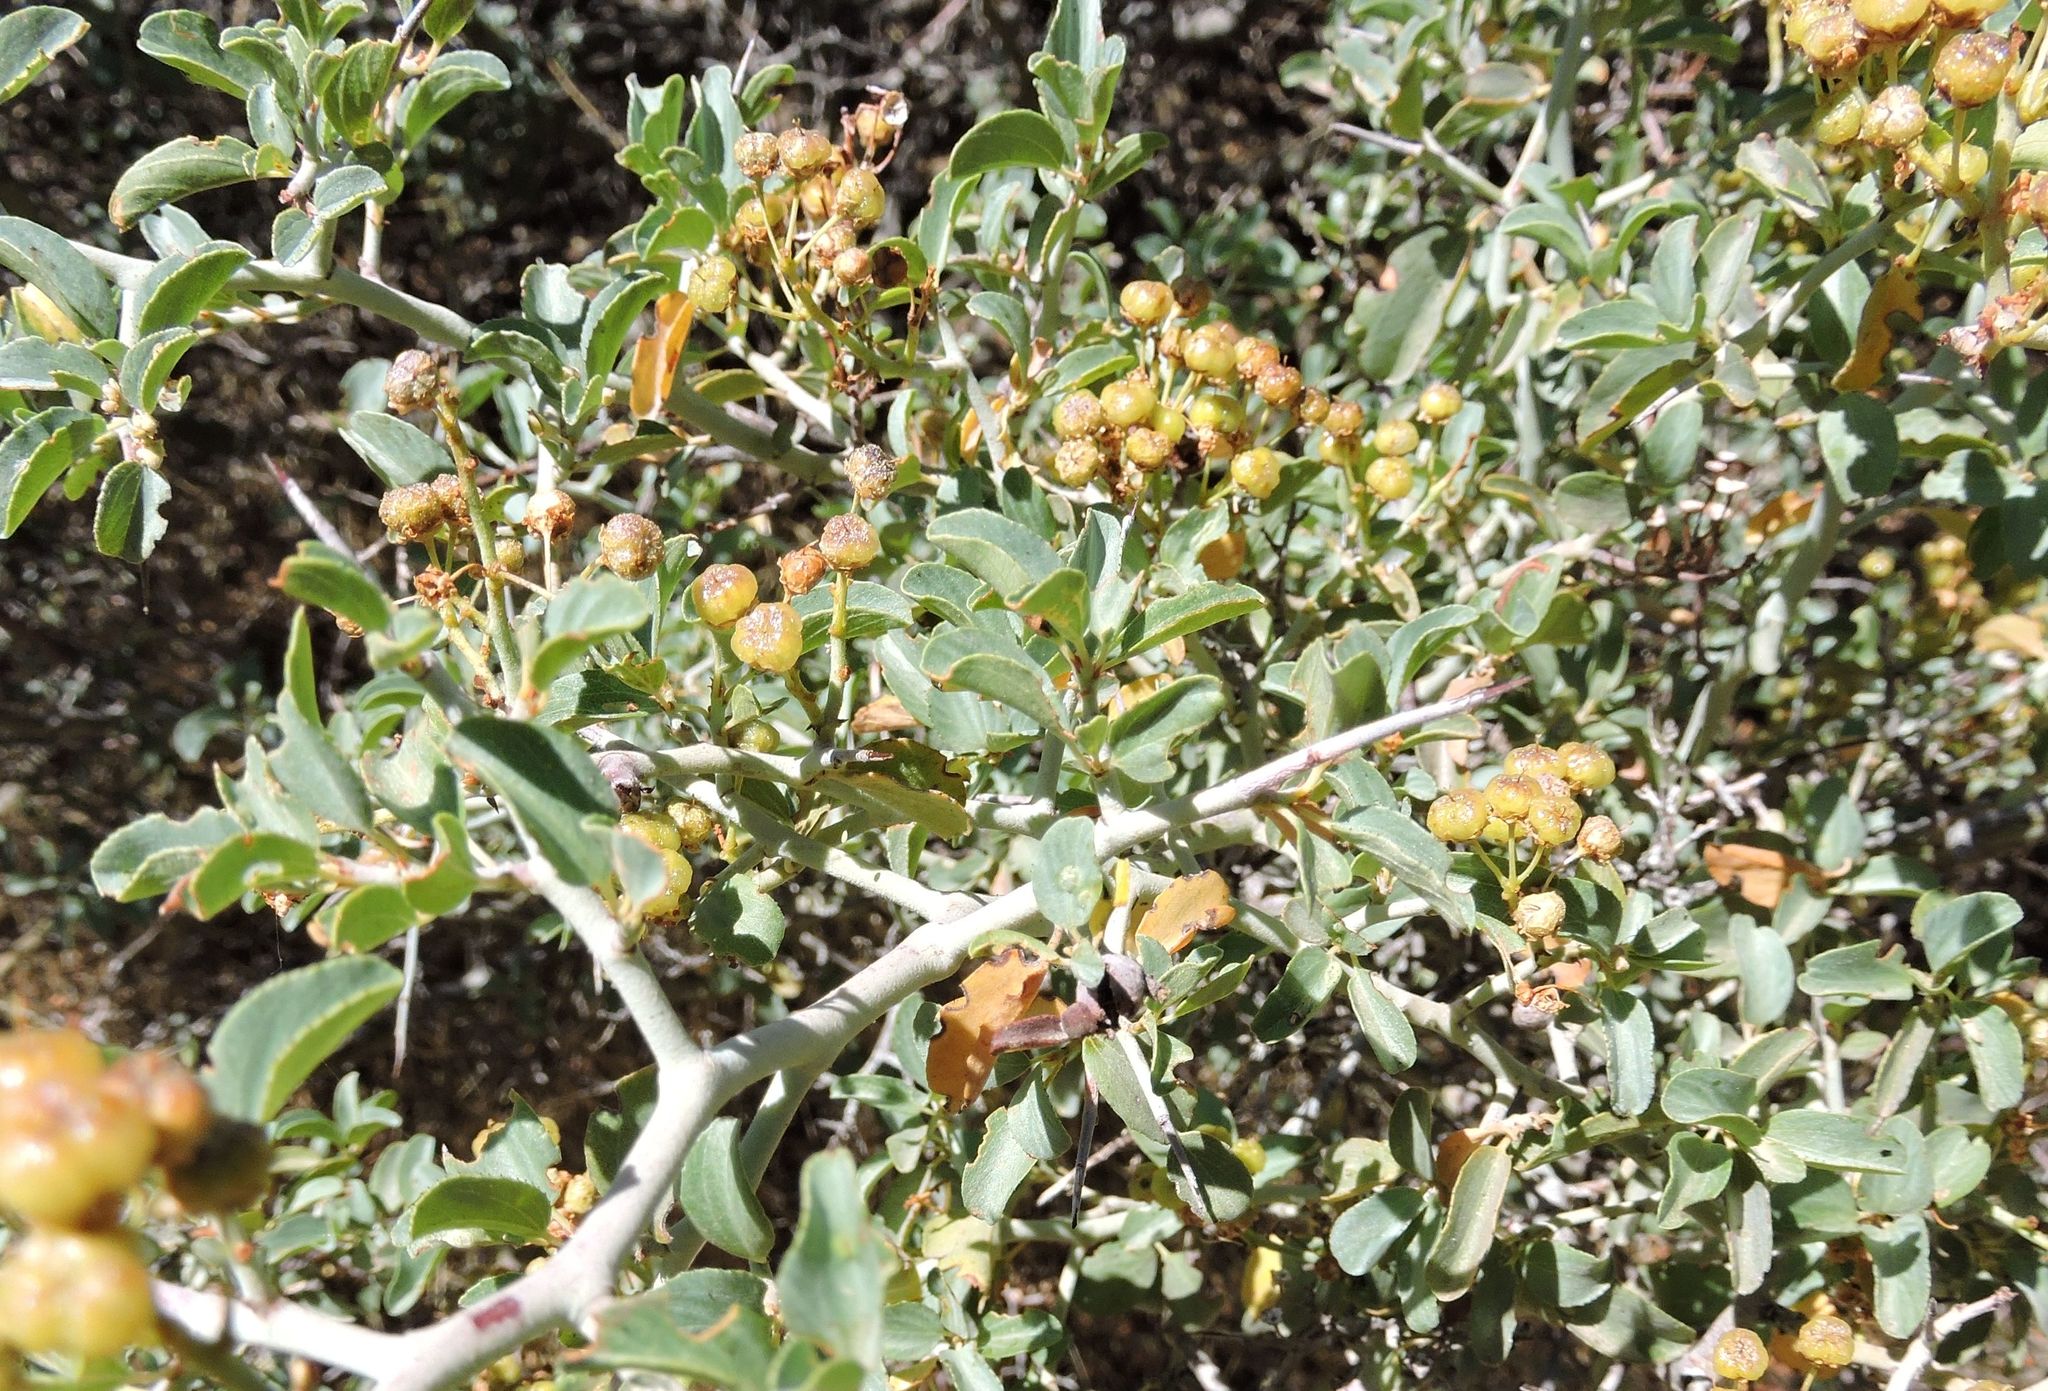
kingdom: Plantae
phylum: Tracheophyta
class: Magnoliopsida
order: Rosales
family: Rhamnaceae
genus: Ceanothus
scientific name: Ceanothus cordulatus
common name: Mountain whitethorn
